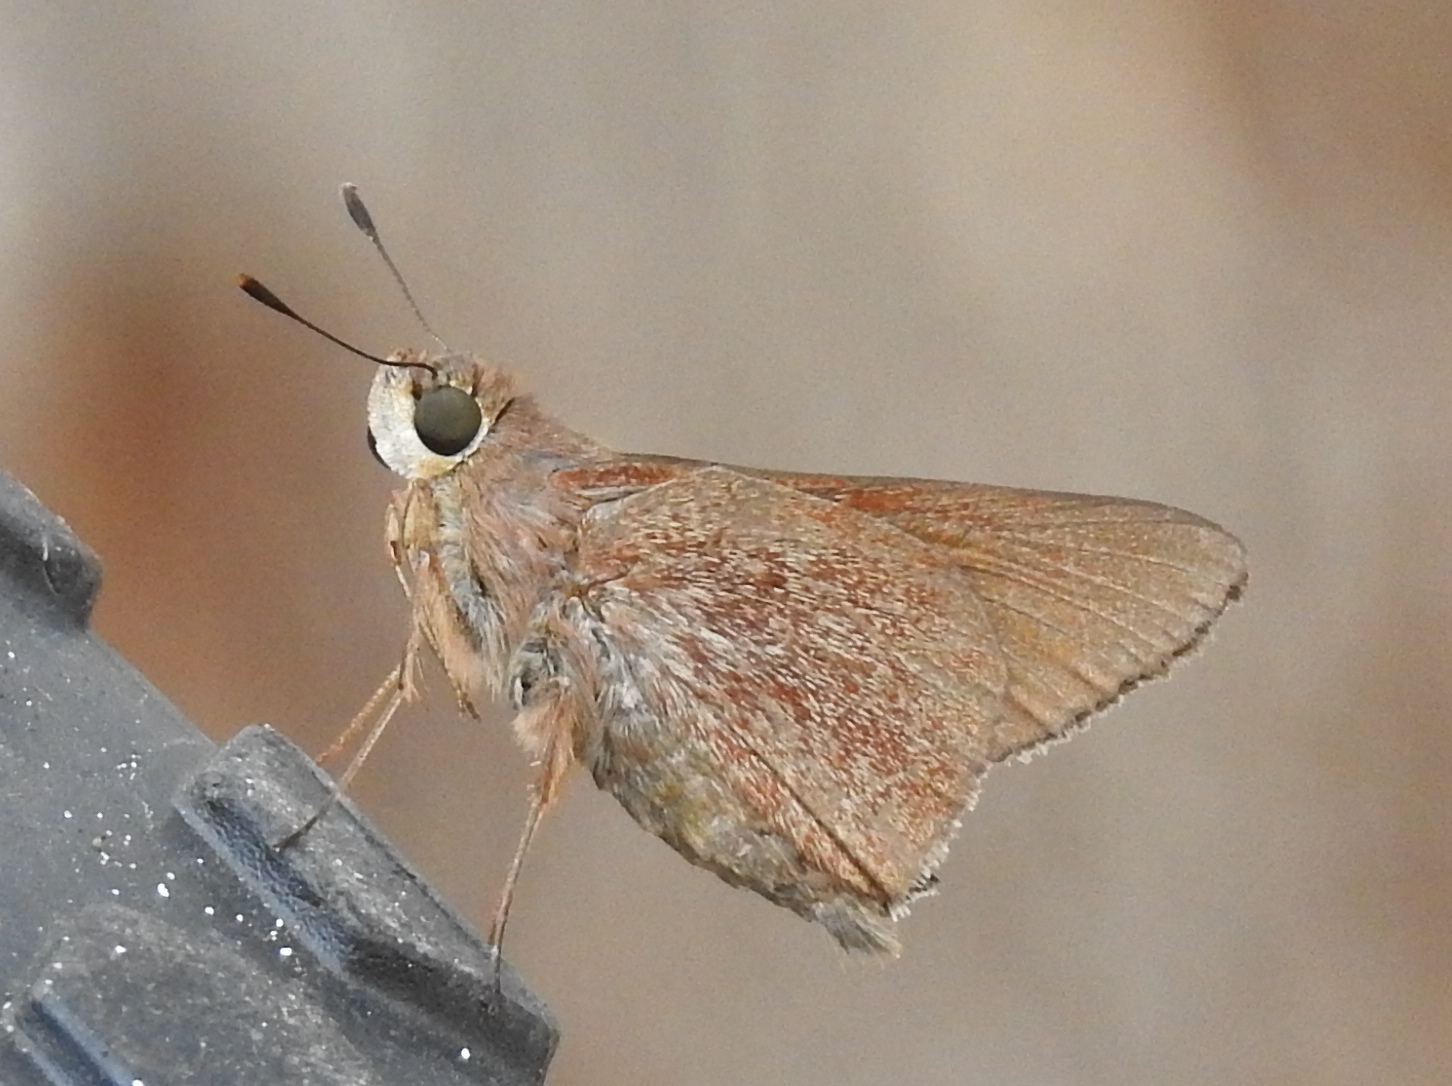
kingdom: Animalia
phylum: Arthropoda
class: Insecta
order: Lepidoptera
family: Hesperiidae
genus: Asbolis
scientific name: Asbolis capucinus
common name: Monk skipper
